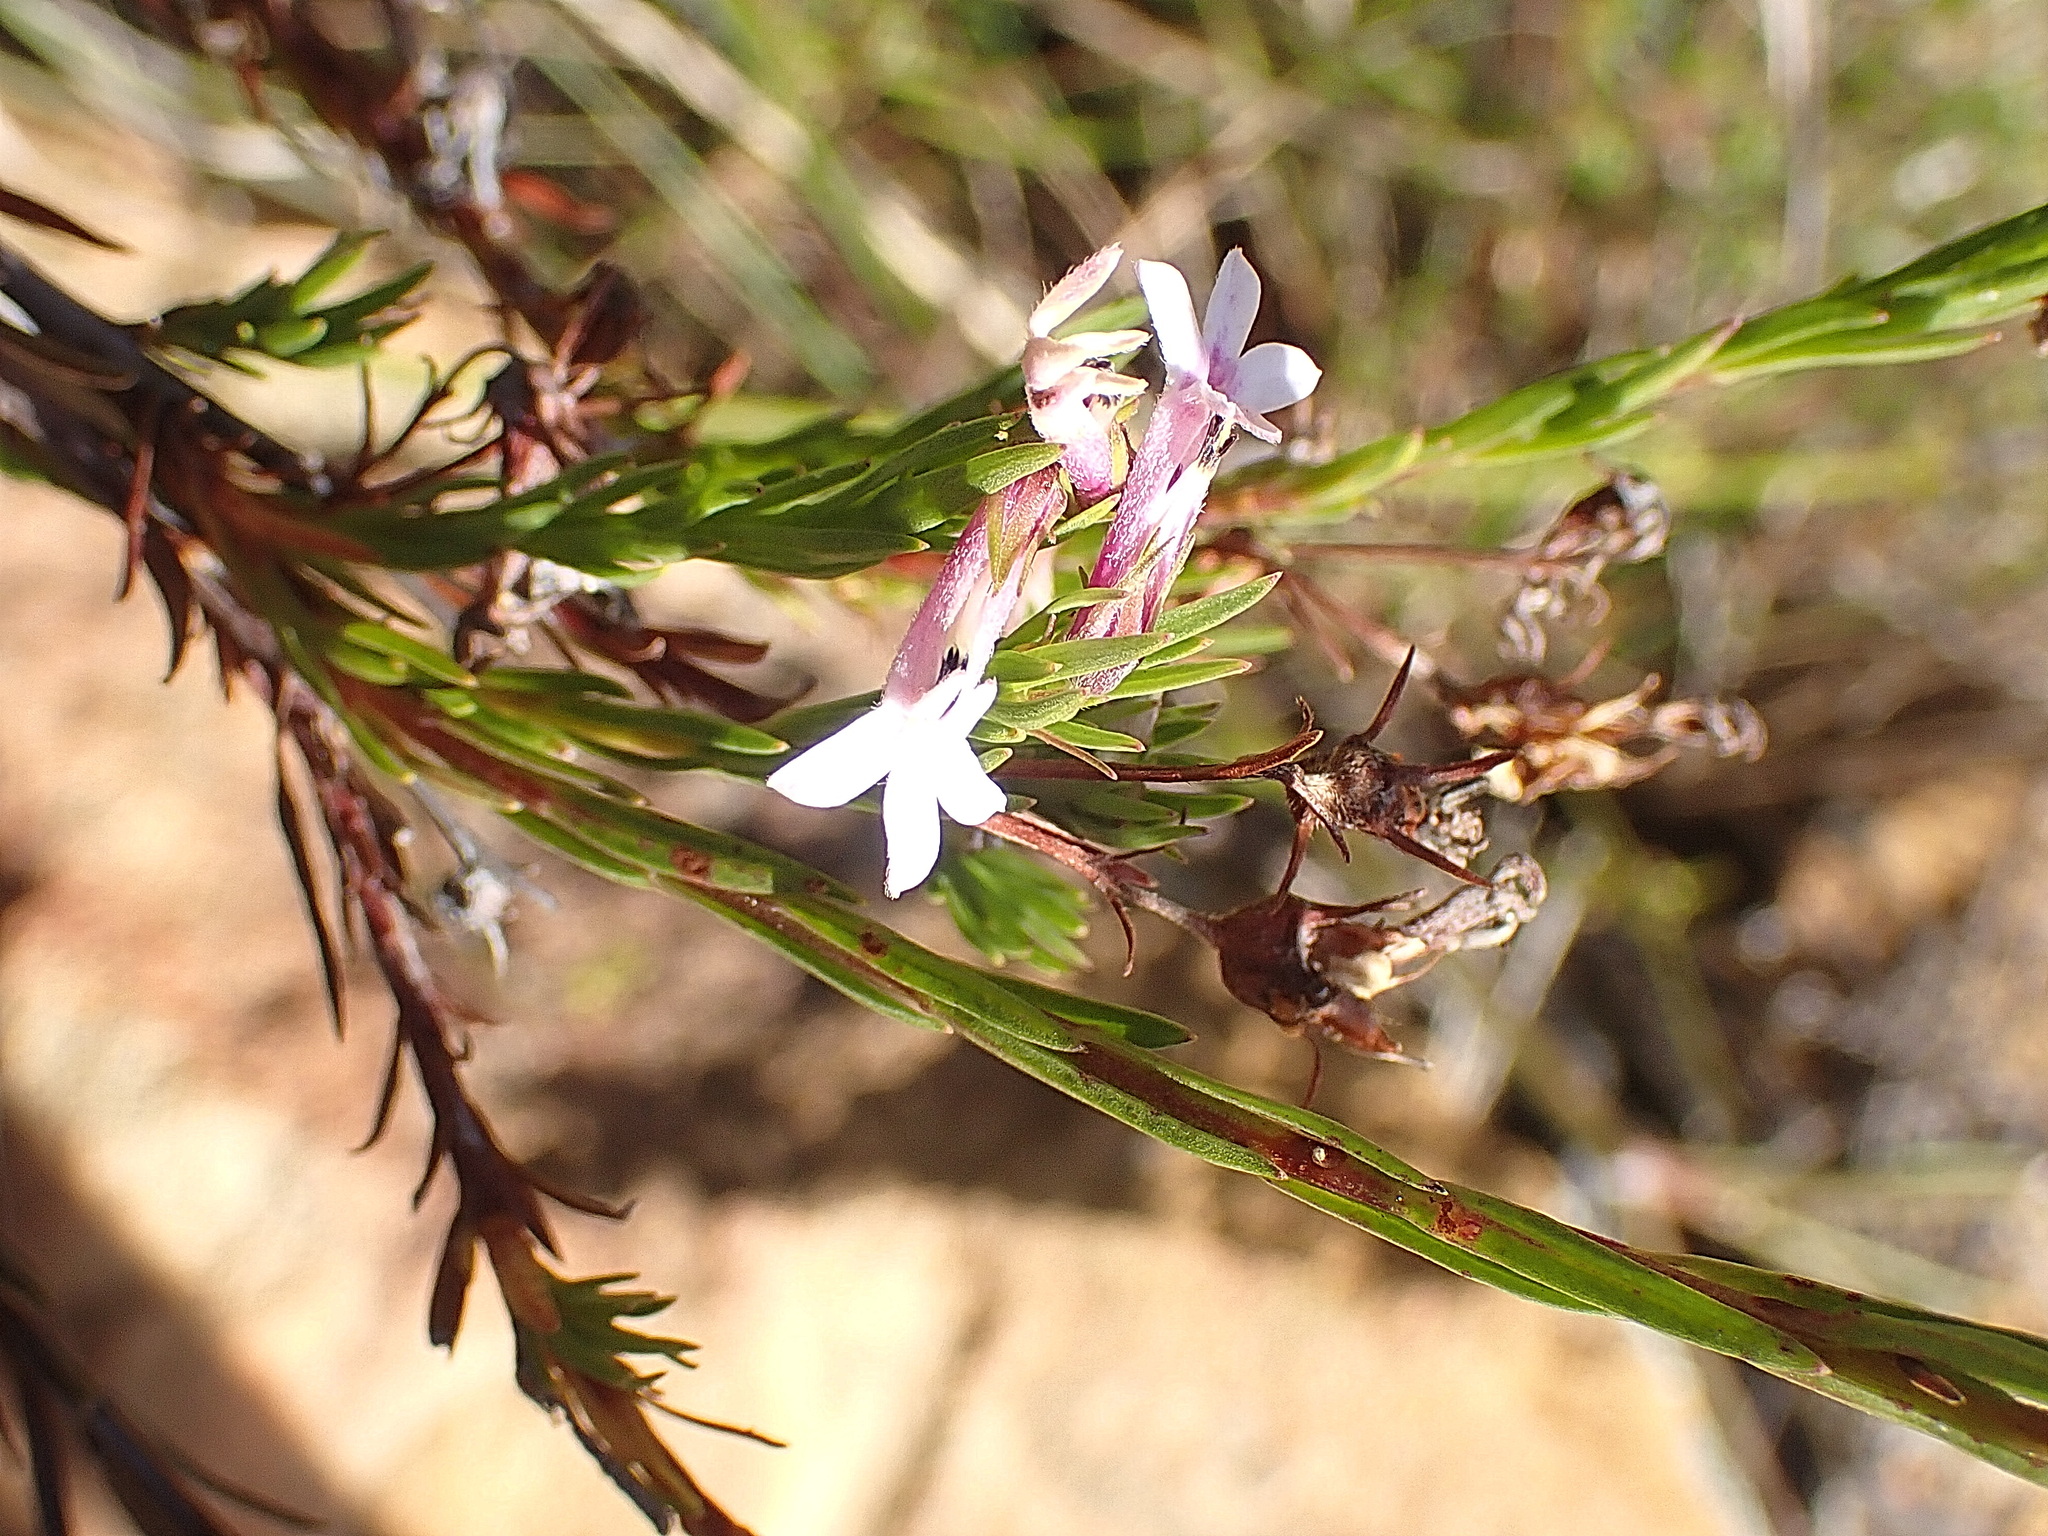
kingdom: Plantae
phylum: Tracheophyta
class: Magnoliopsida
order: Asterales
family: Campanulaceae
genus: Lobelia
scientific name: Lobelia pinifolia
